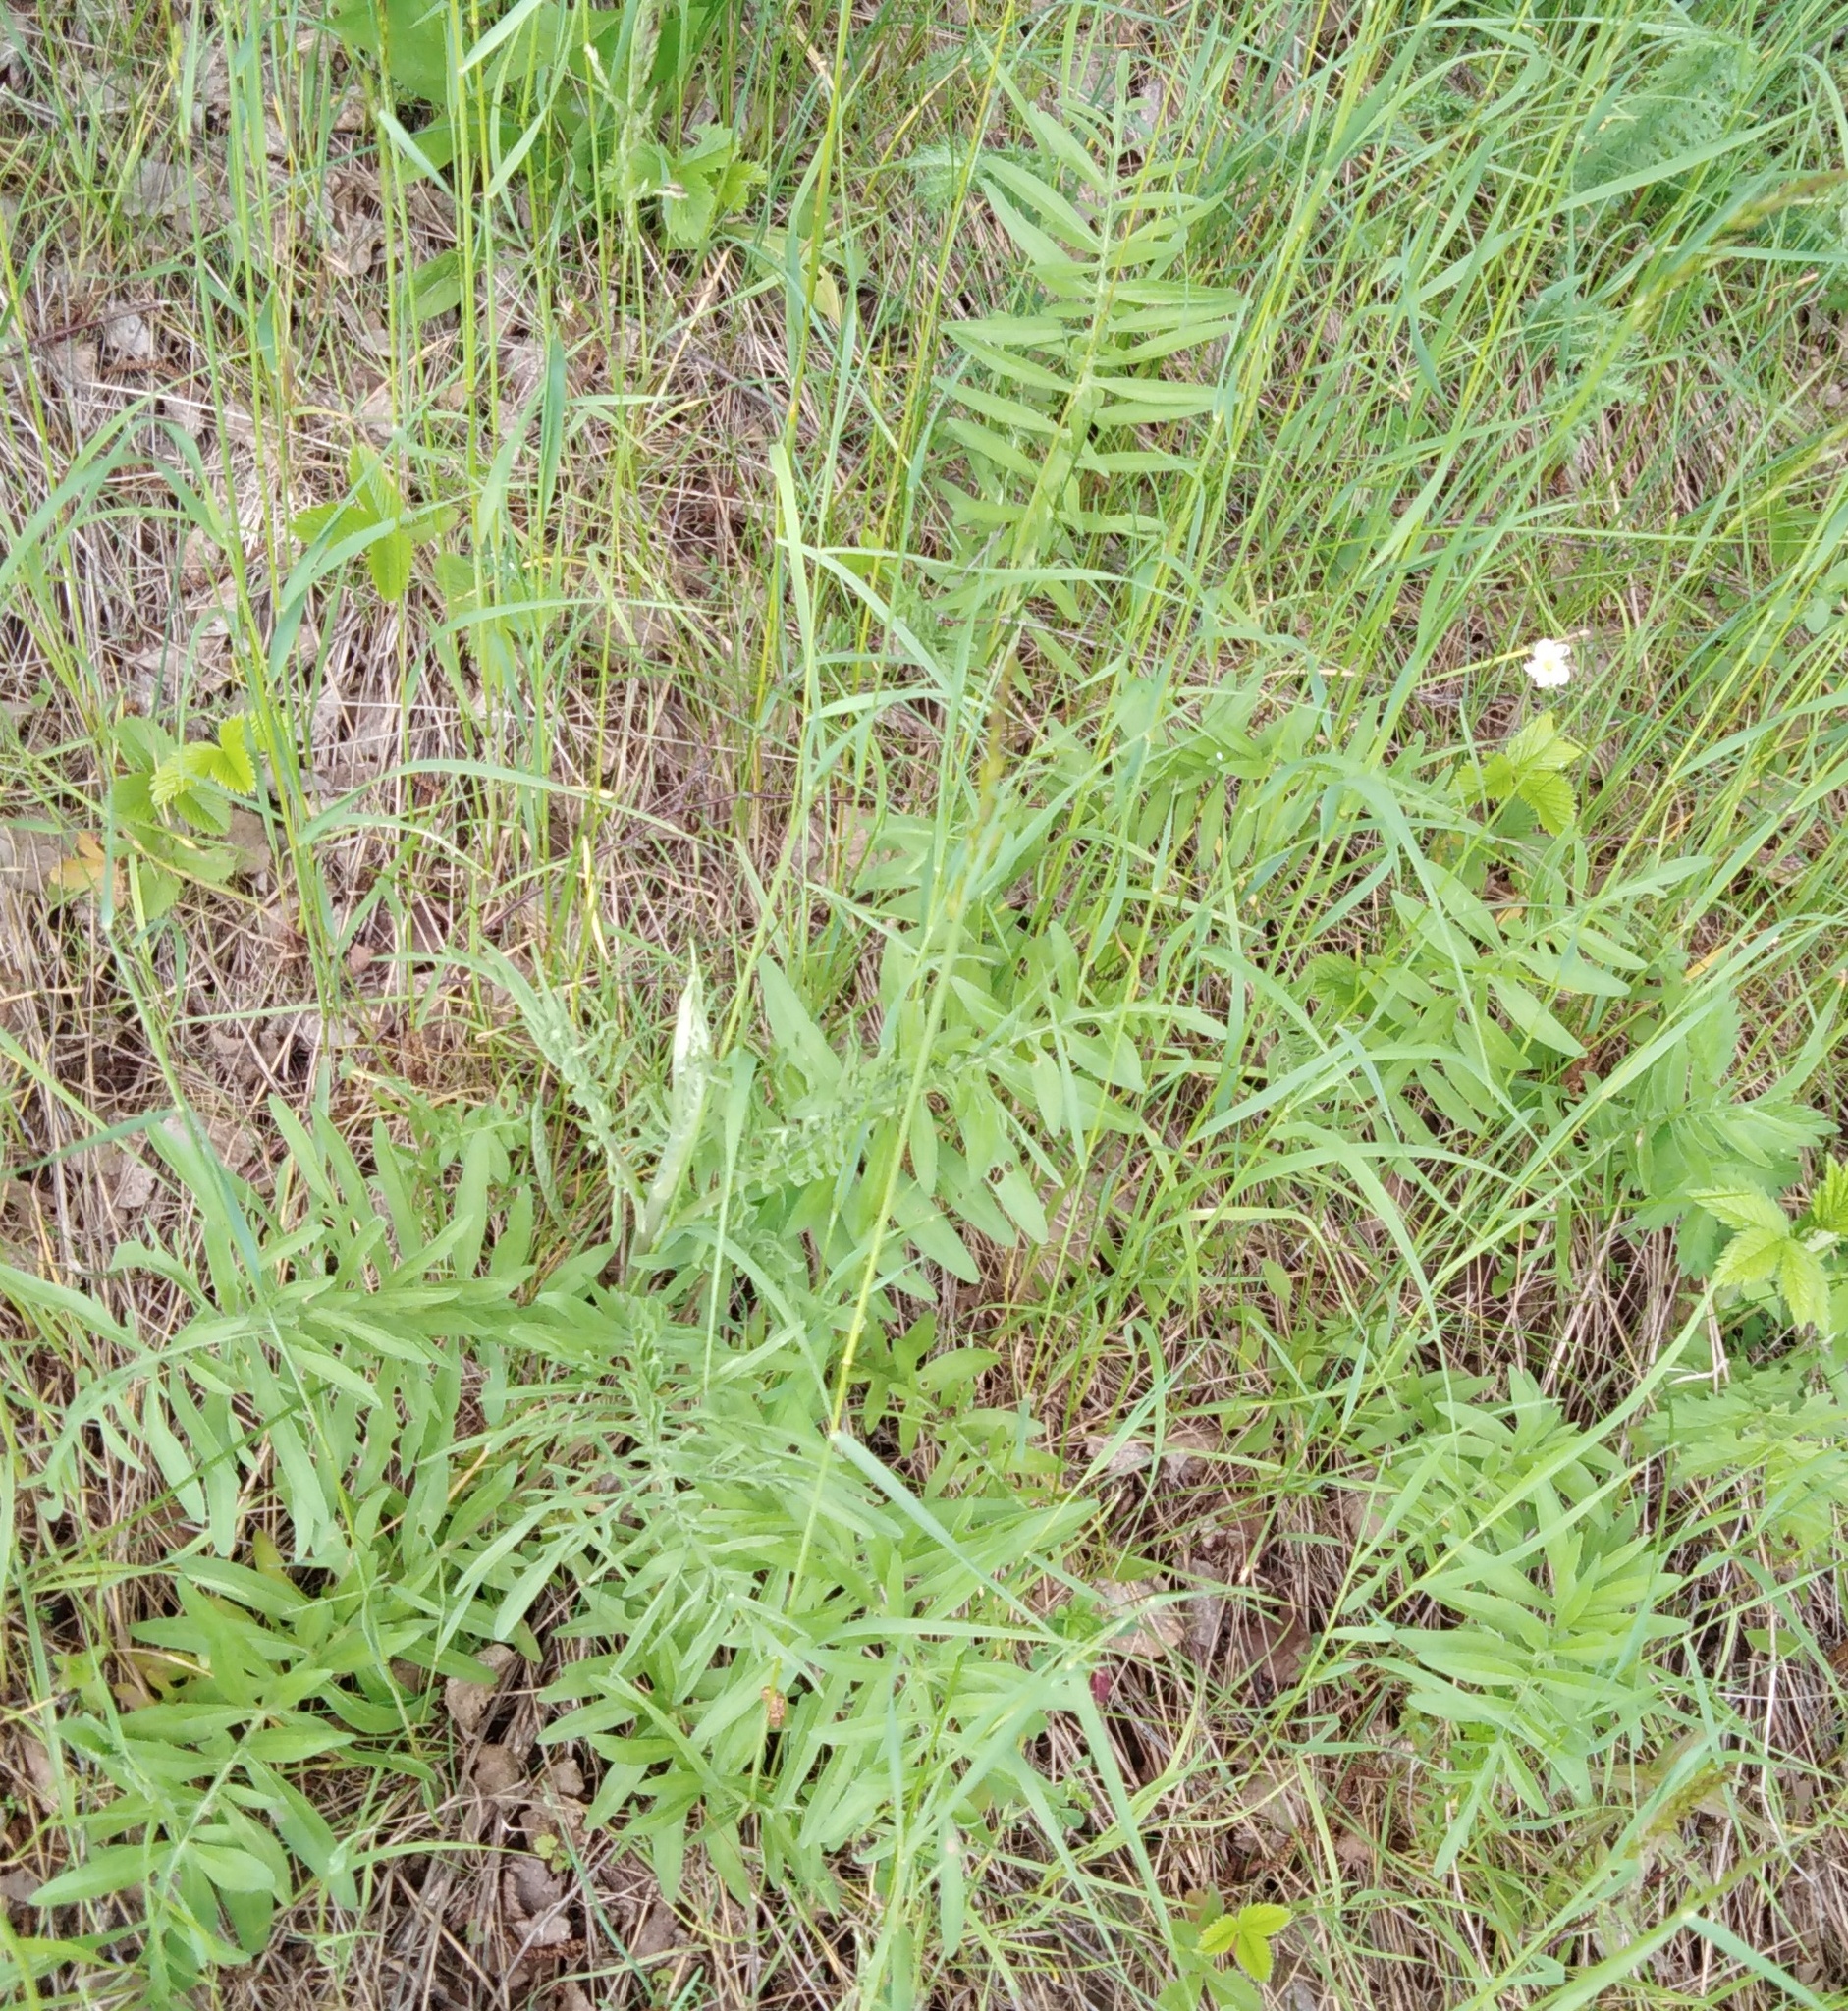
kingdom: Plantae
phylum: Tracheophyta
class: Magnoliopsida
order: Asterales
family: Asteraceae
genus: Centaurea
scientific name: Centaurea scabiosa
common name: Greater knapweed
